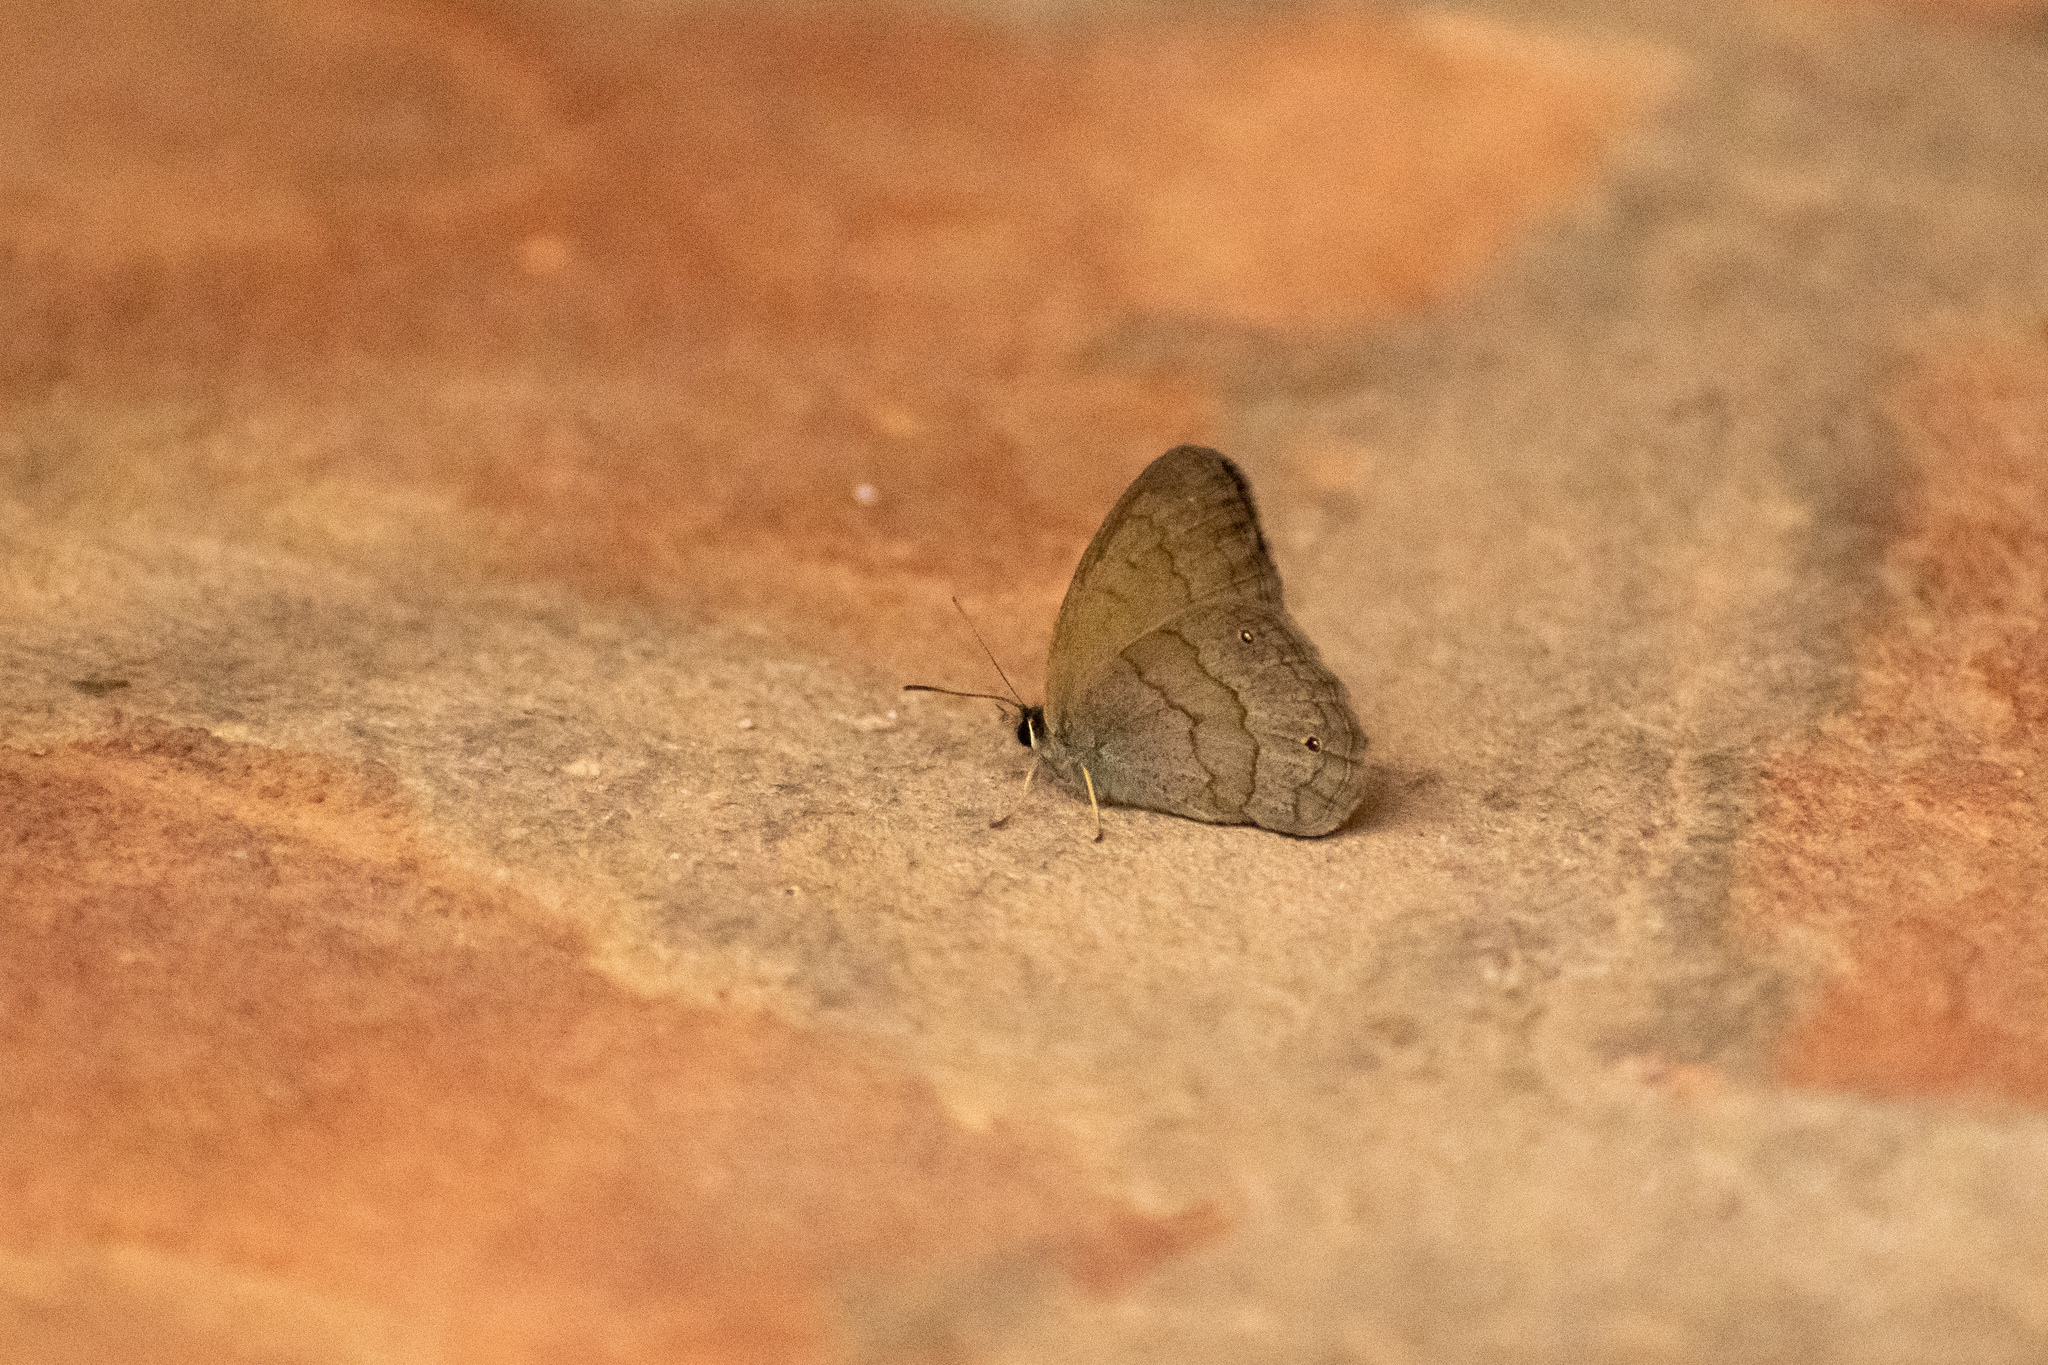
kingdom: Animalia
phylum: Arthropoda
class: Insecta
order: Lepidoptera
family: Nymphalidae
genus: Euptychia
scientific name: Euptychia Cissia eous
